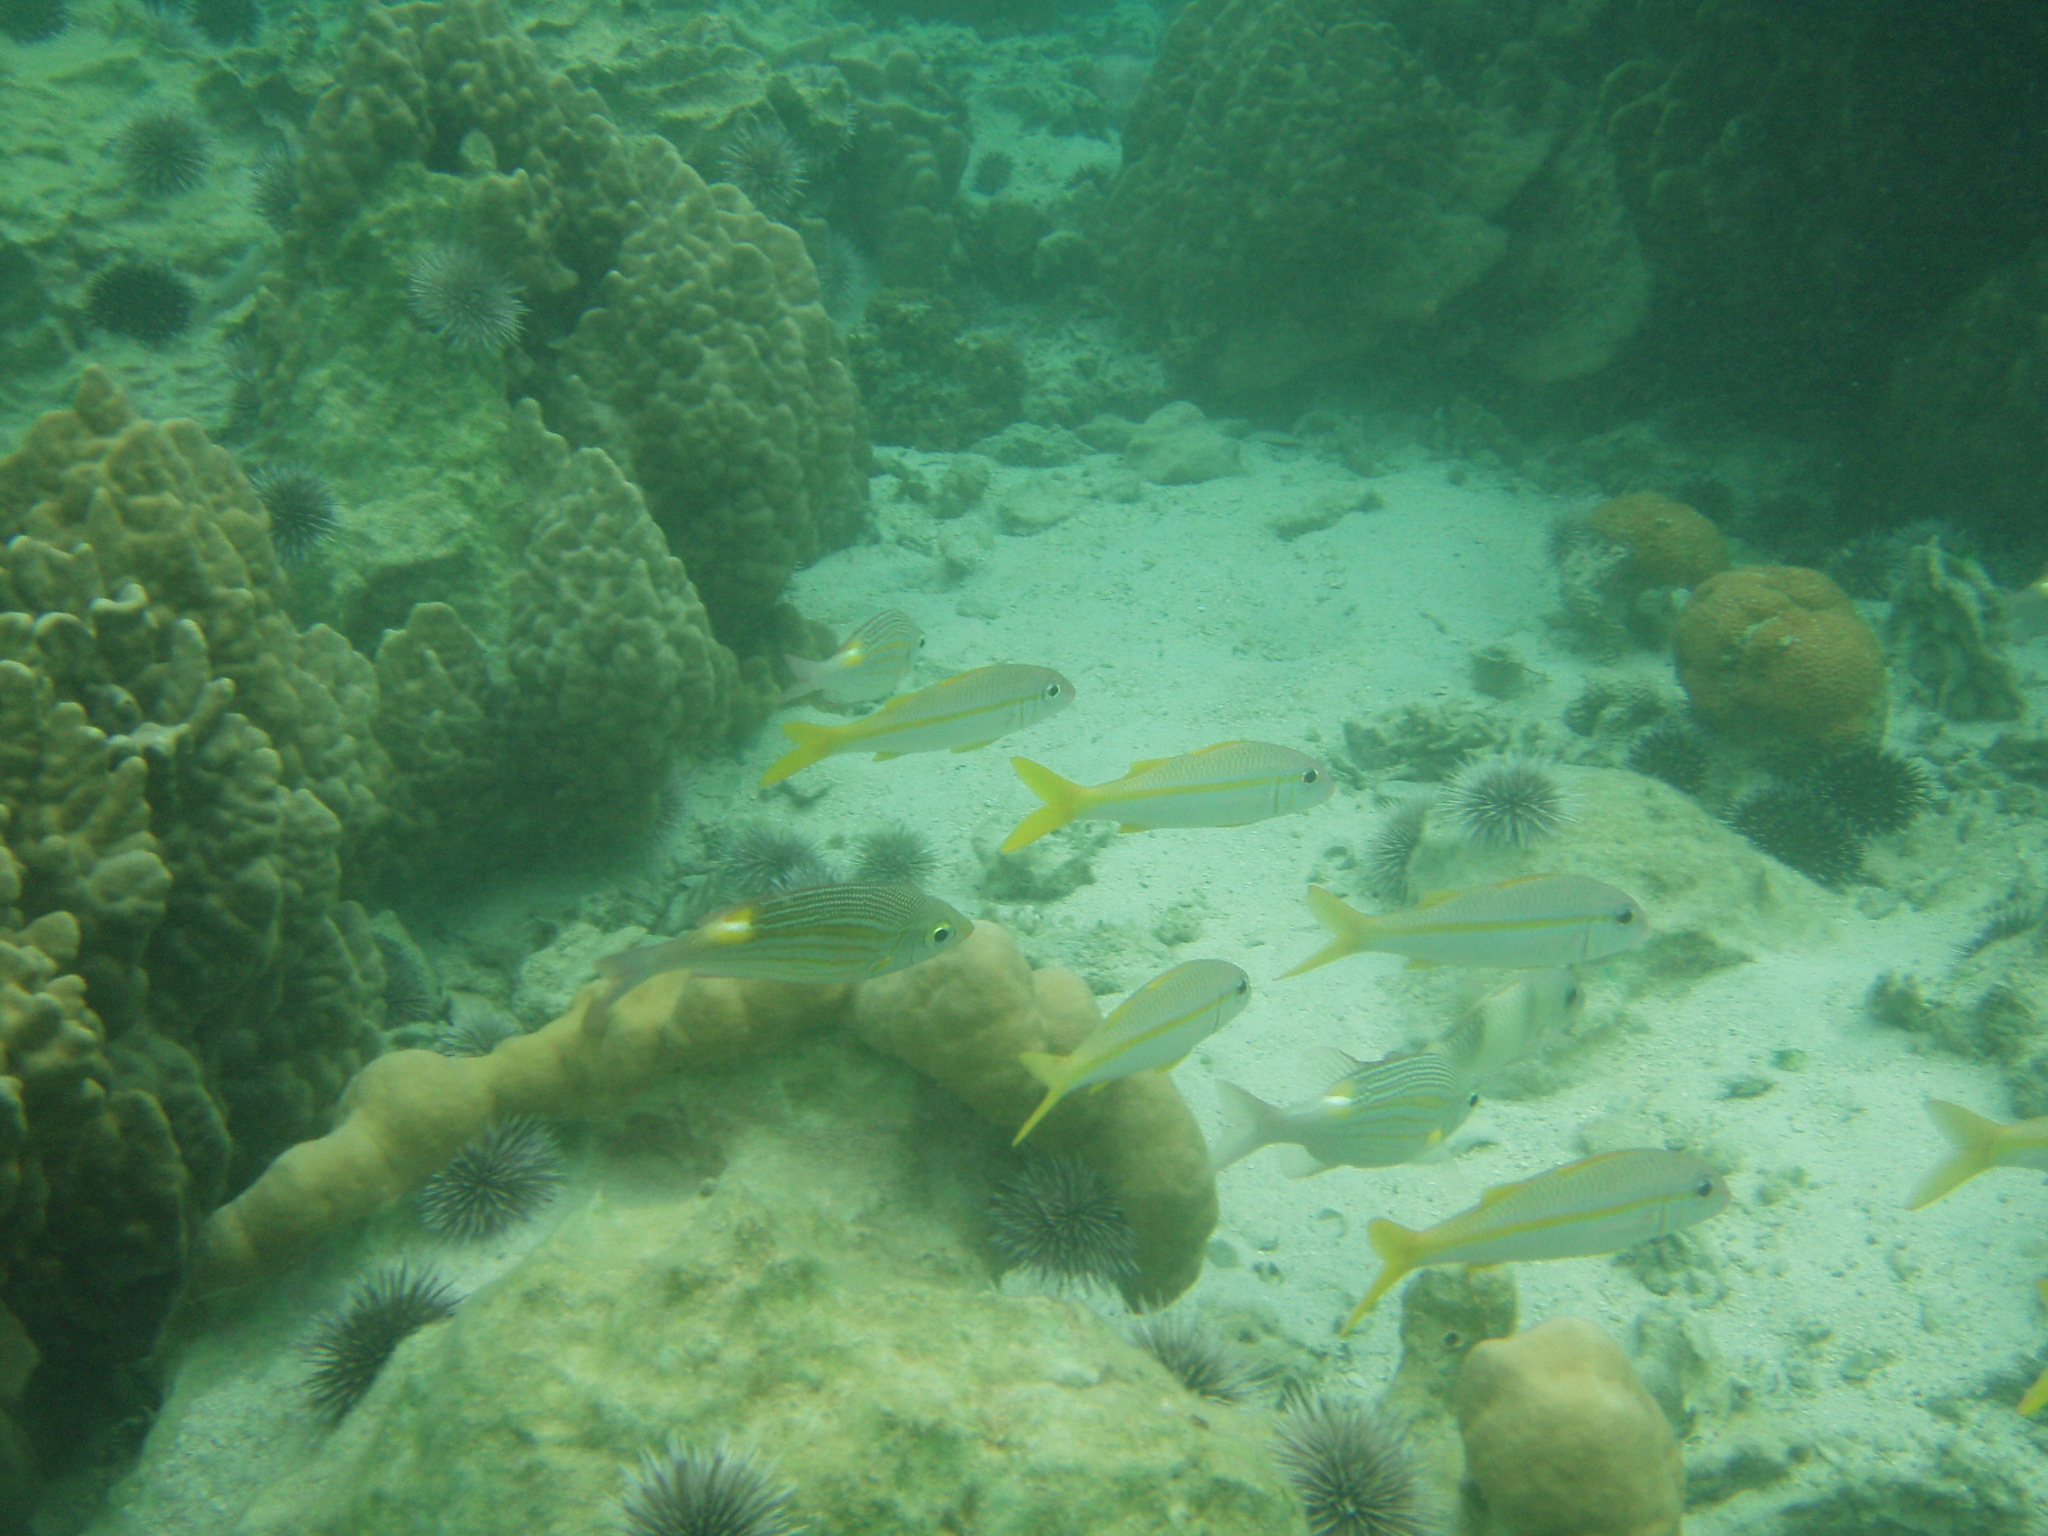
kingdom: Animalia
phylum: Chordata
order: Perciformes
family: Mullidae
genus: Mulloidichthys
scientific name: Mulloidichthys vanicolensis
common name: Yellowfin goatfish
